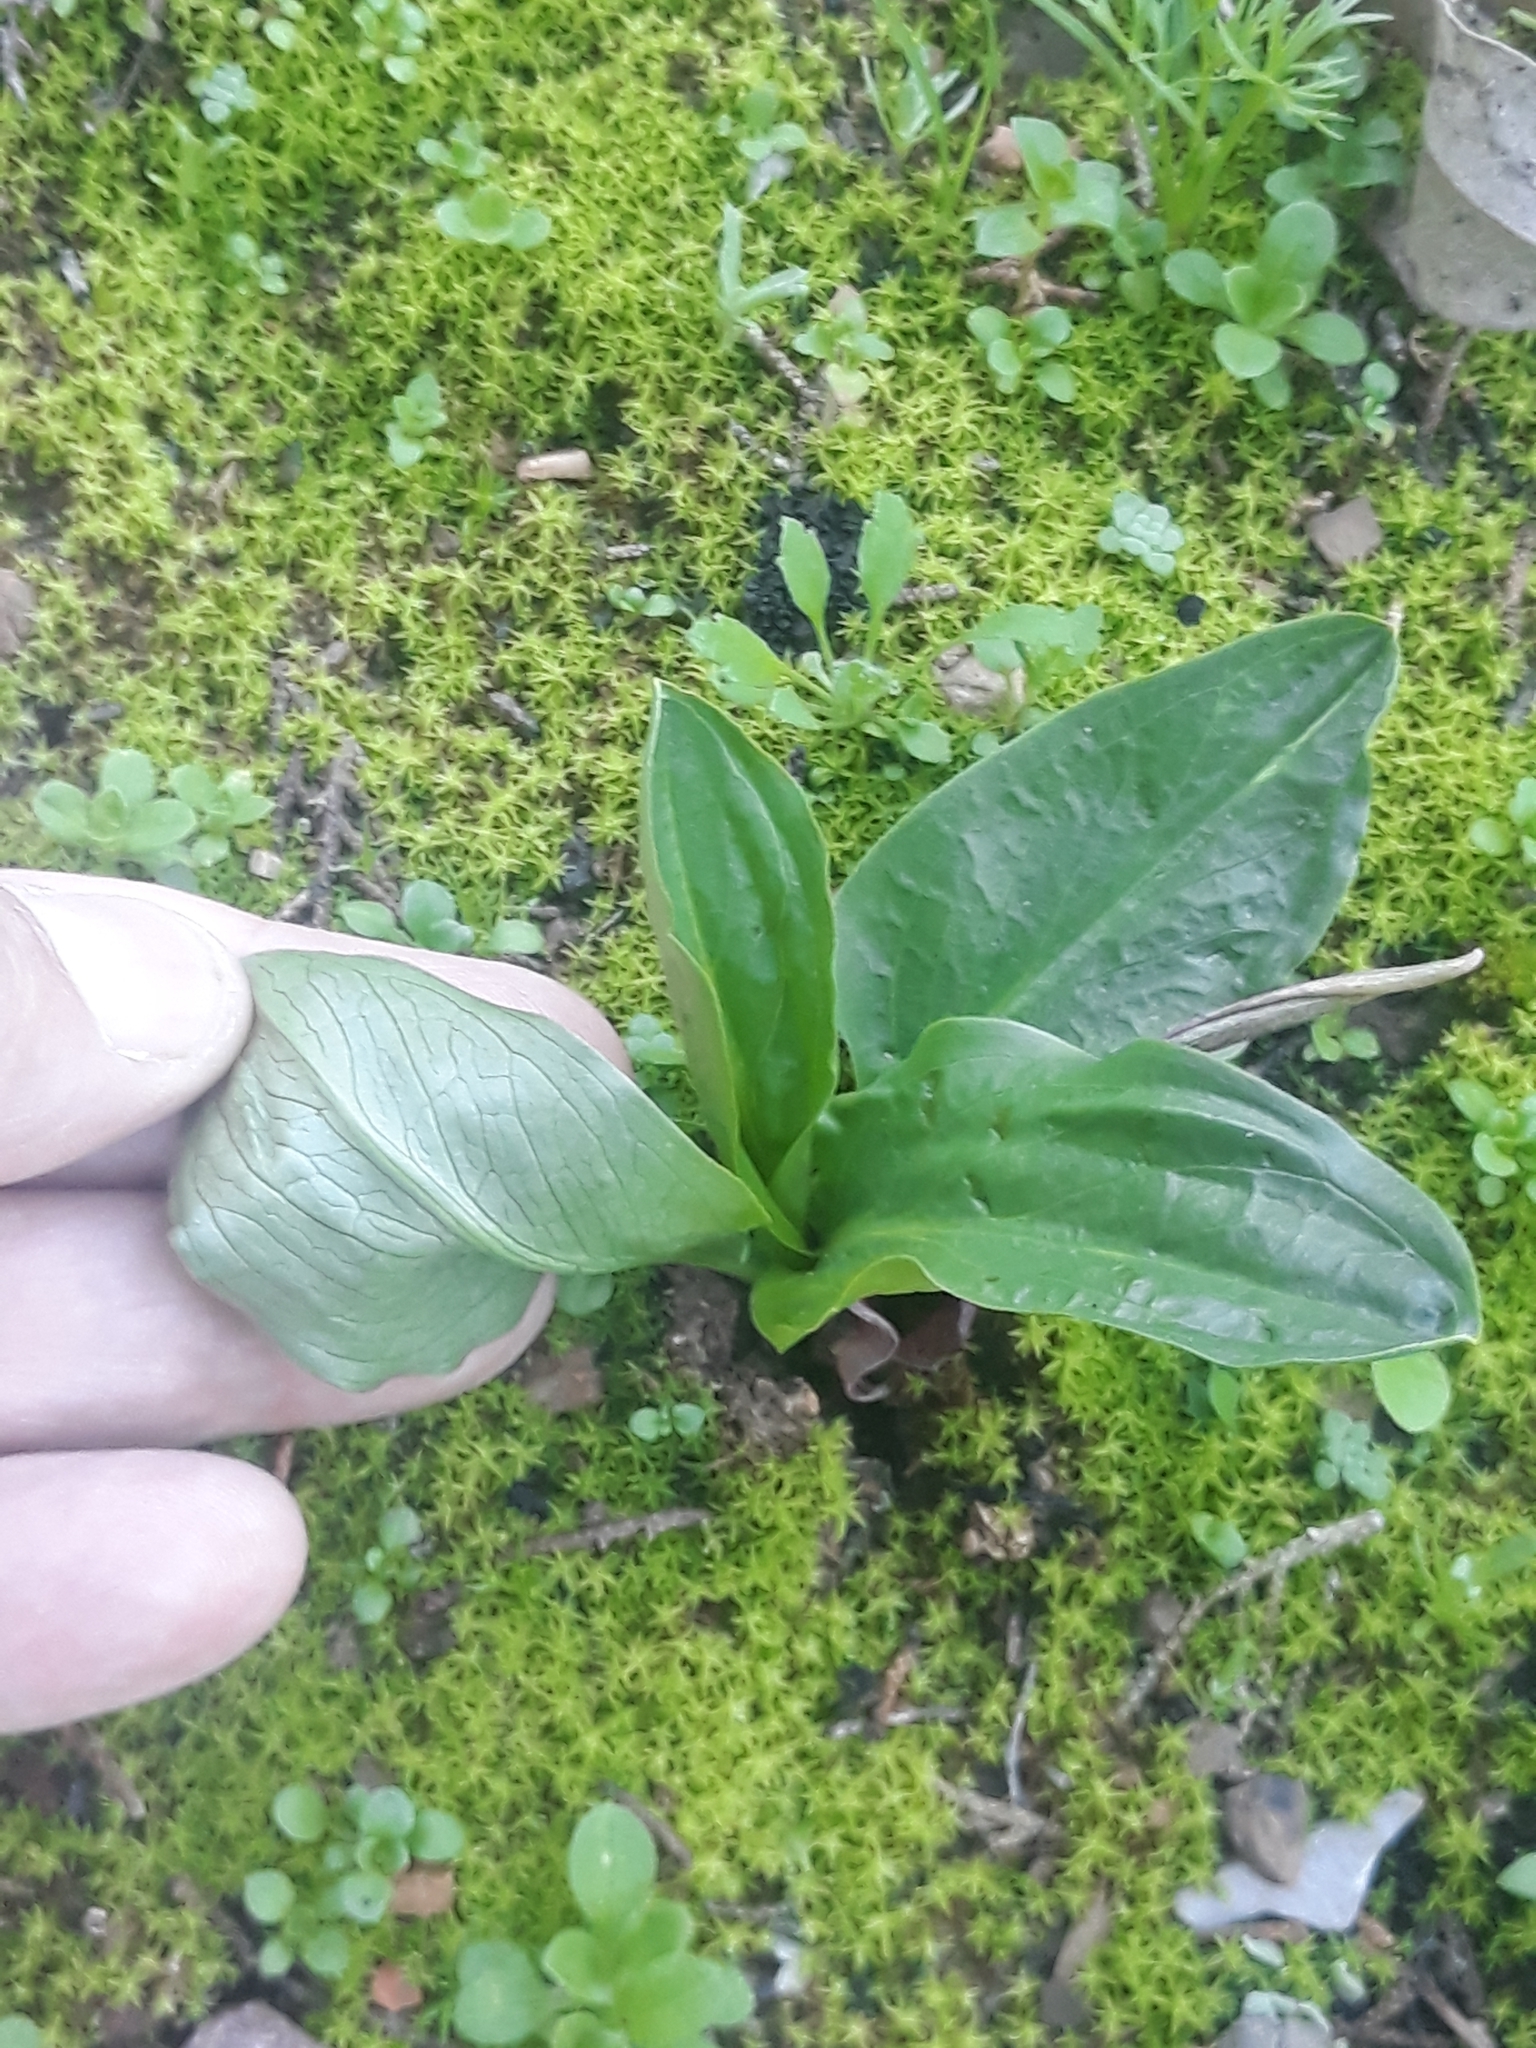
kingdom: Plantae
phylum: Tracheophyta
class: Liliopsida
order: Alismatales
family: Araceae
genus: Biarum
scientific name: Biarum dispar
